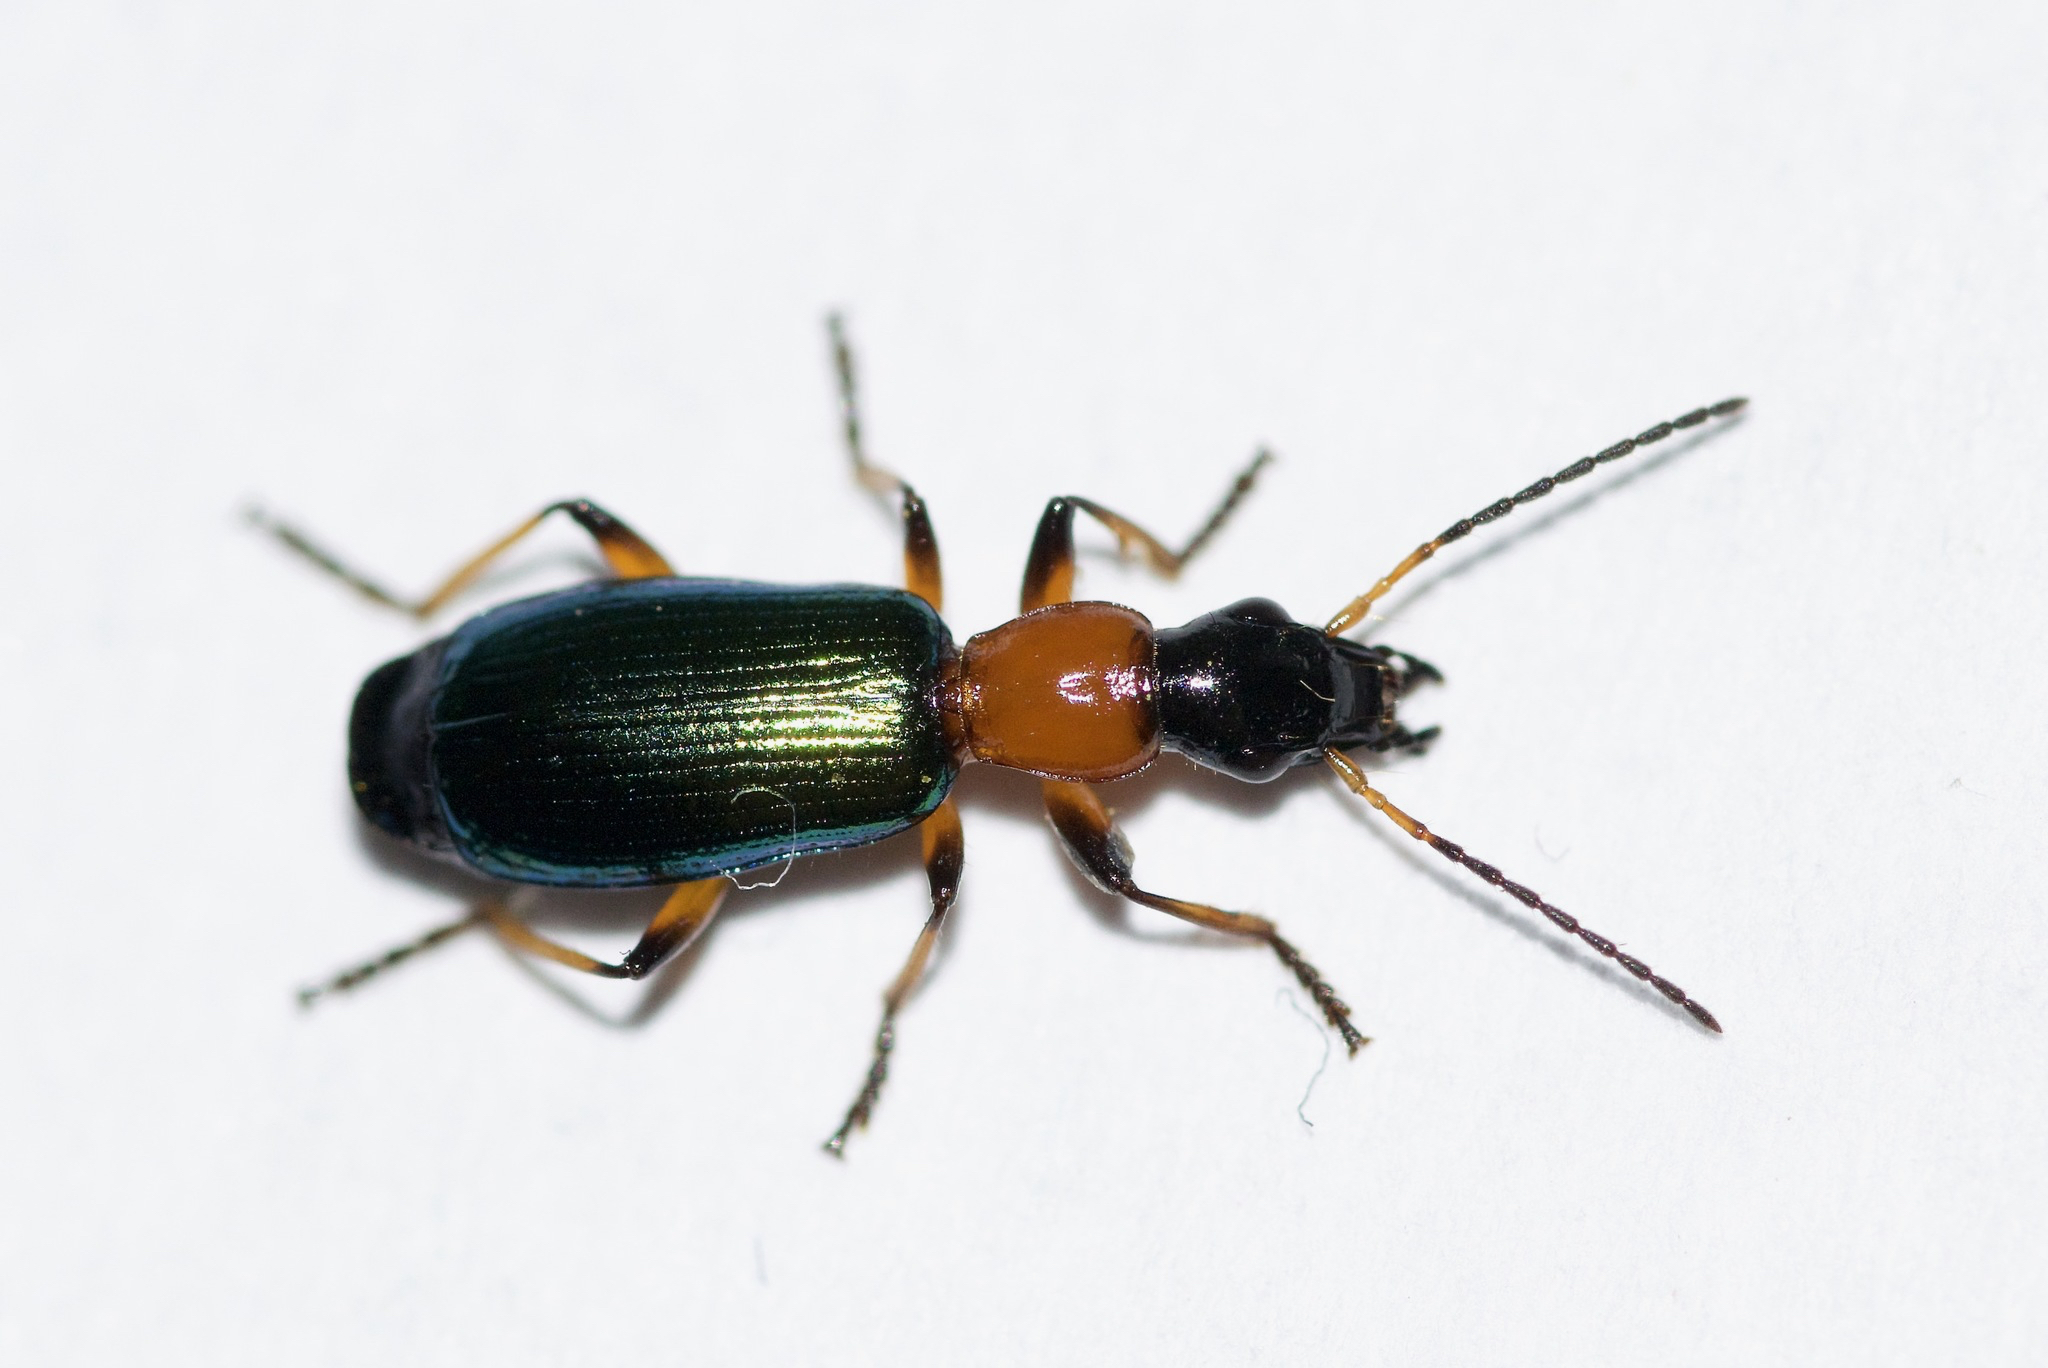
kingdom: Animalia
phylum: Arthropoda
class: Insecta
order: Coleoptera
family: Carabidae
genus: Calleida
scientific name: Calleida punctata
